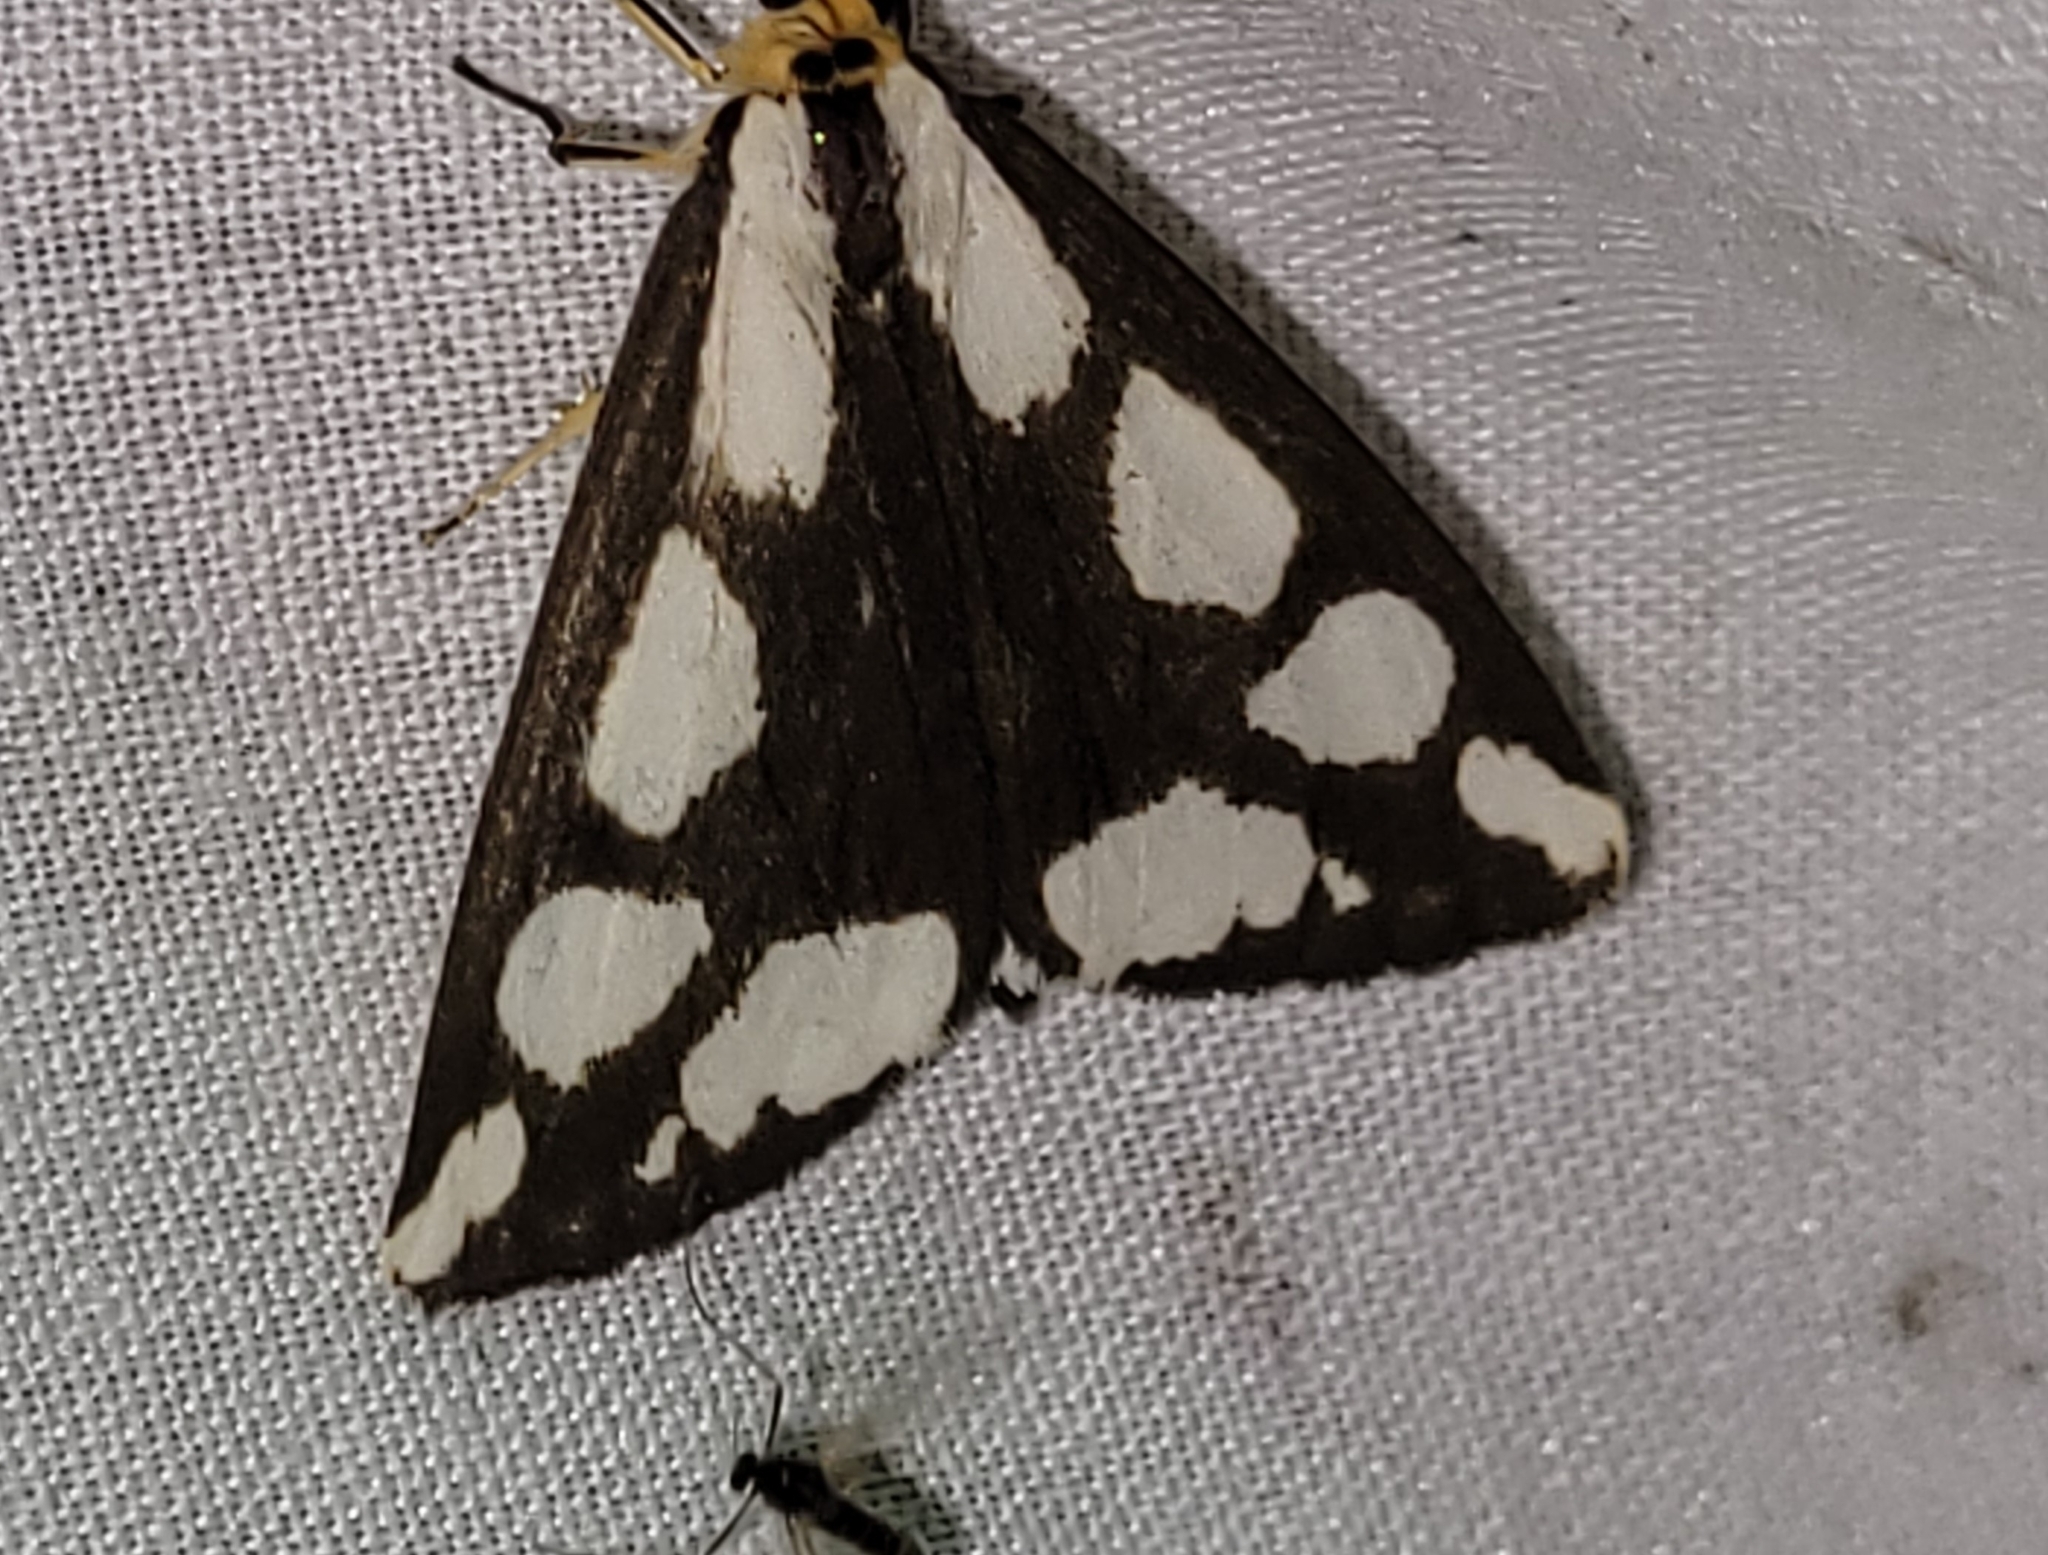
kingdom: Animalia
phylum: Arthropoda
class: Insecta
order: Lepidoptera
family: Erebidae
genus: Haploa
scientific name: Haploa lecontei
